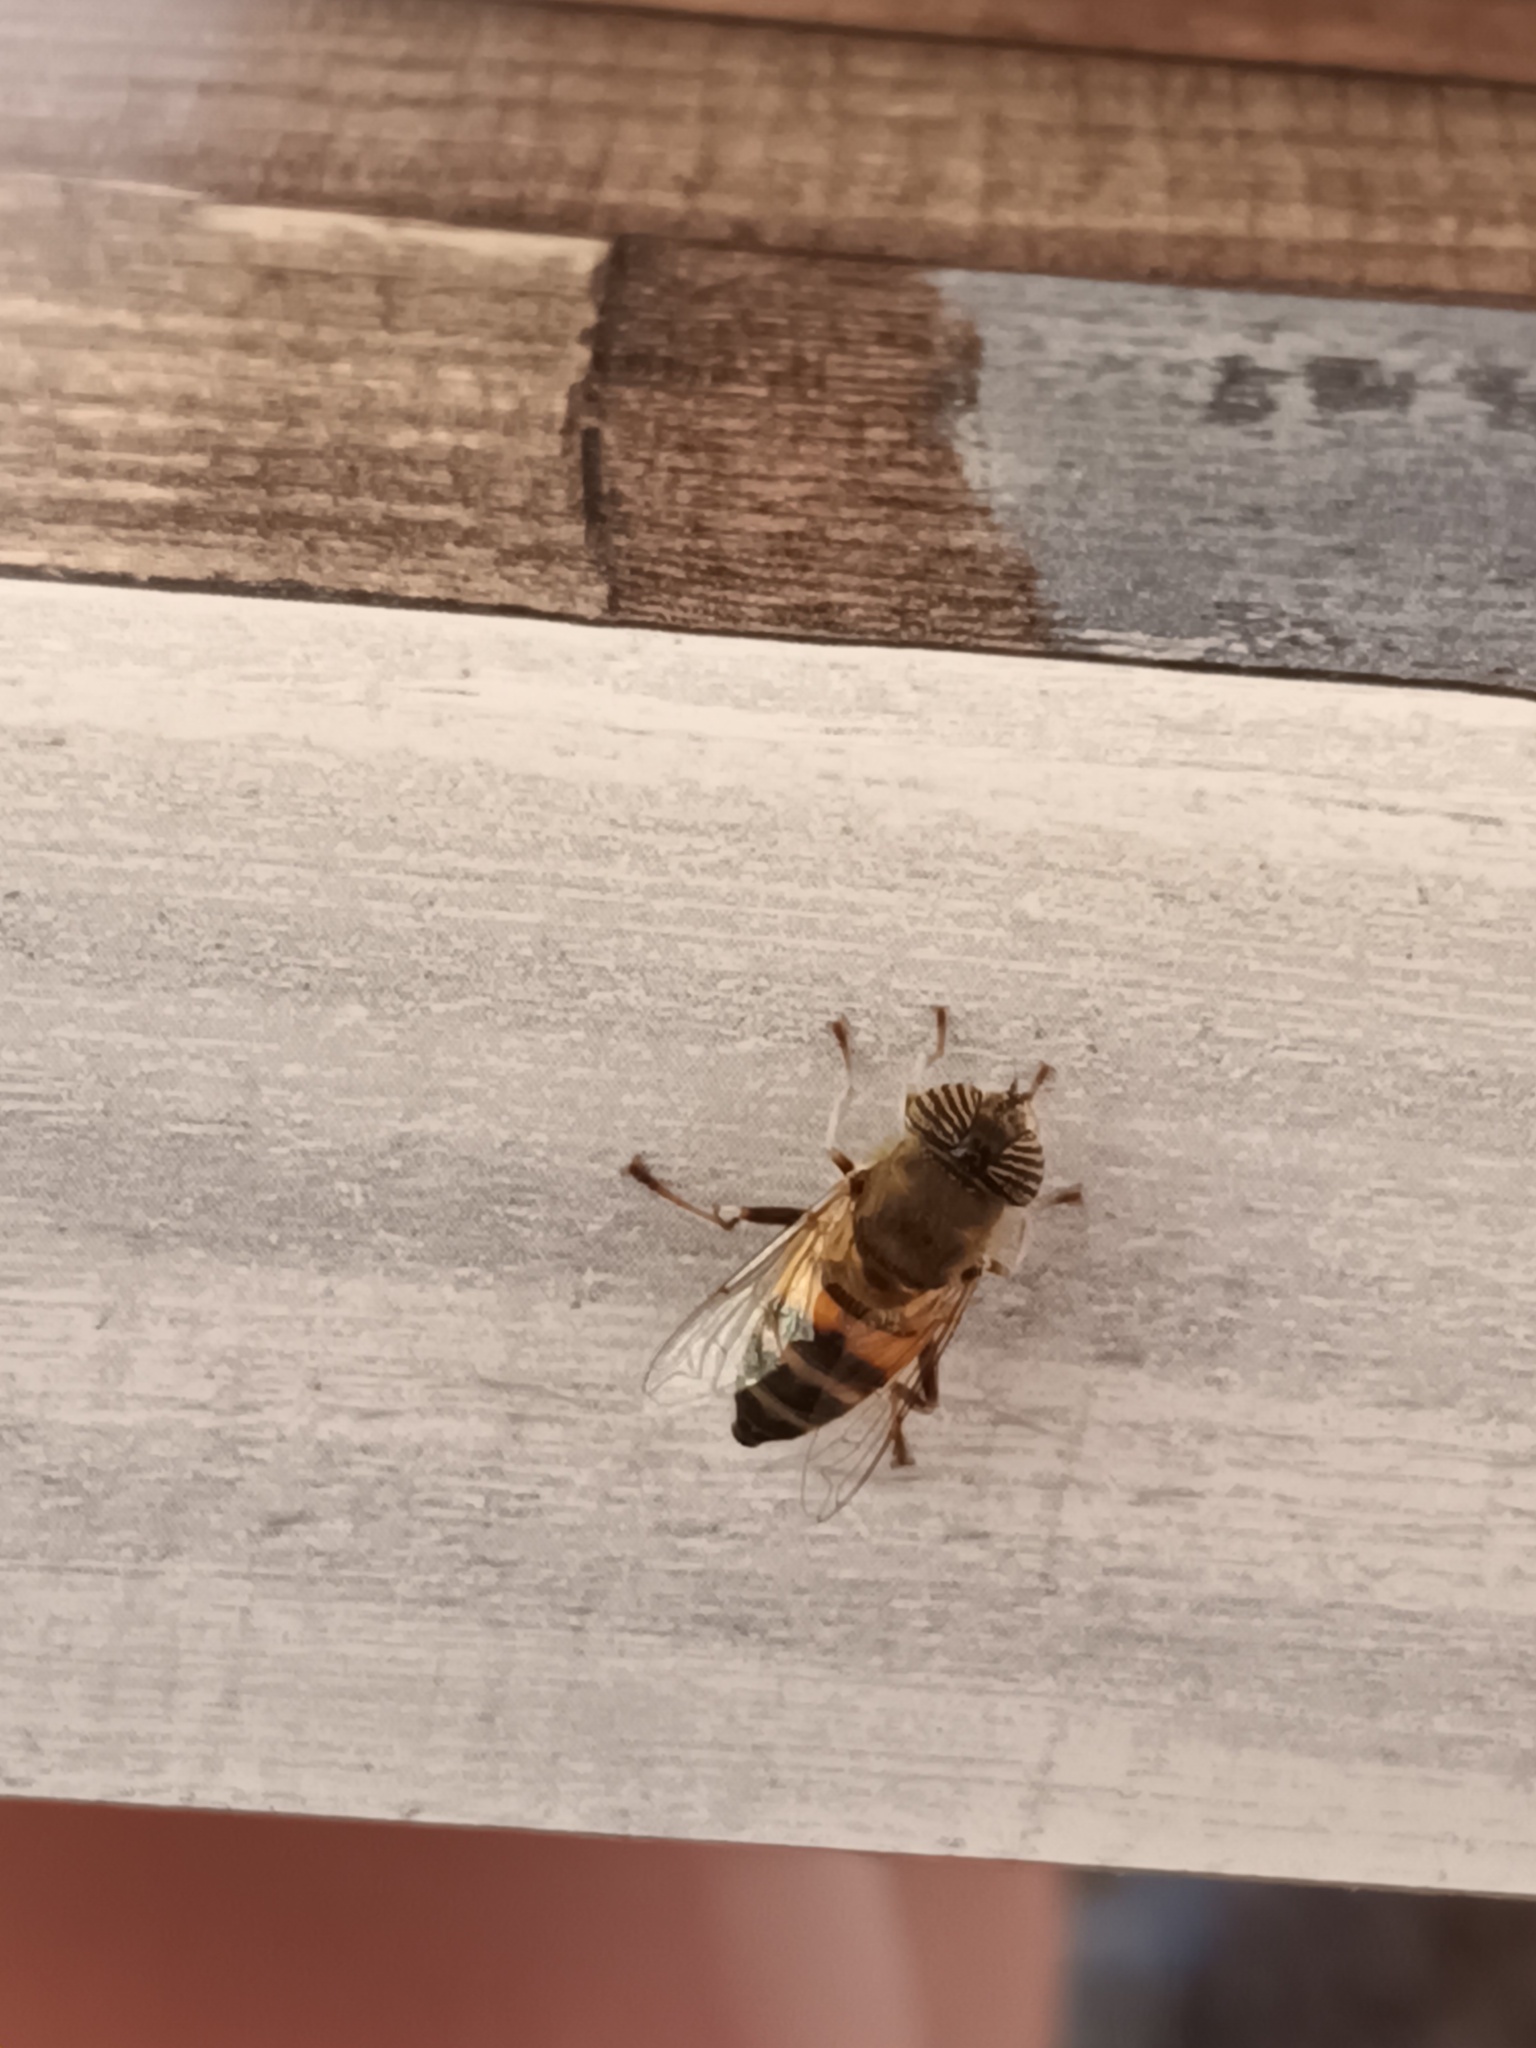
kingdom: Animalia
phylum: Arthropoda
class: Insecta
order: Diptera
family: Syrphidae
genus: Eristalinus
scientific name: Eristalinus taeniops
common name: Syrphid fly
